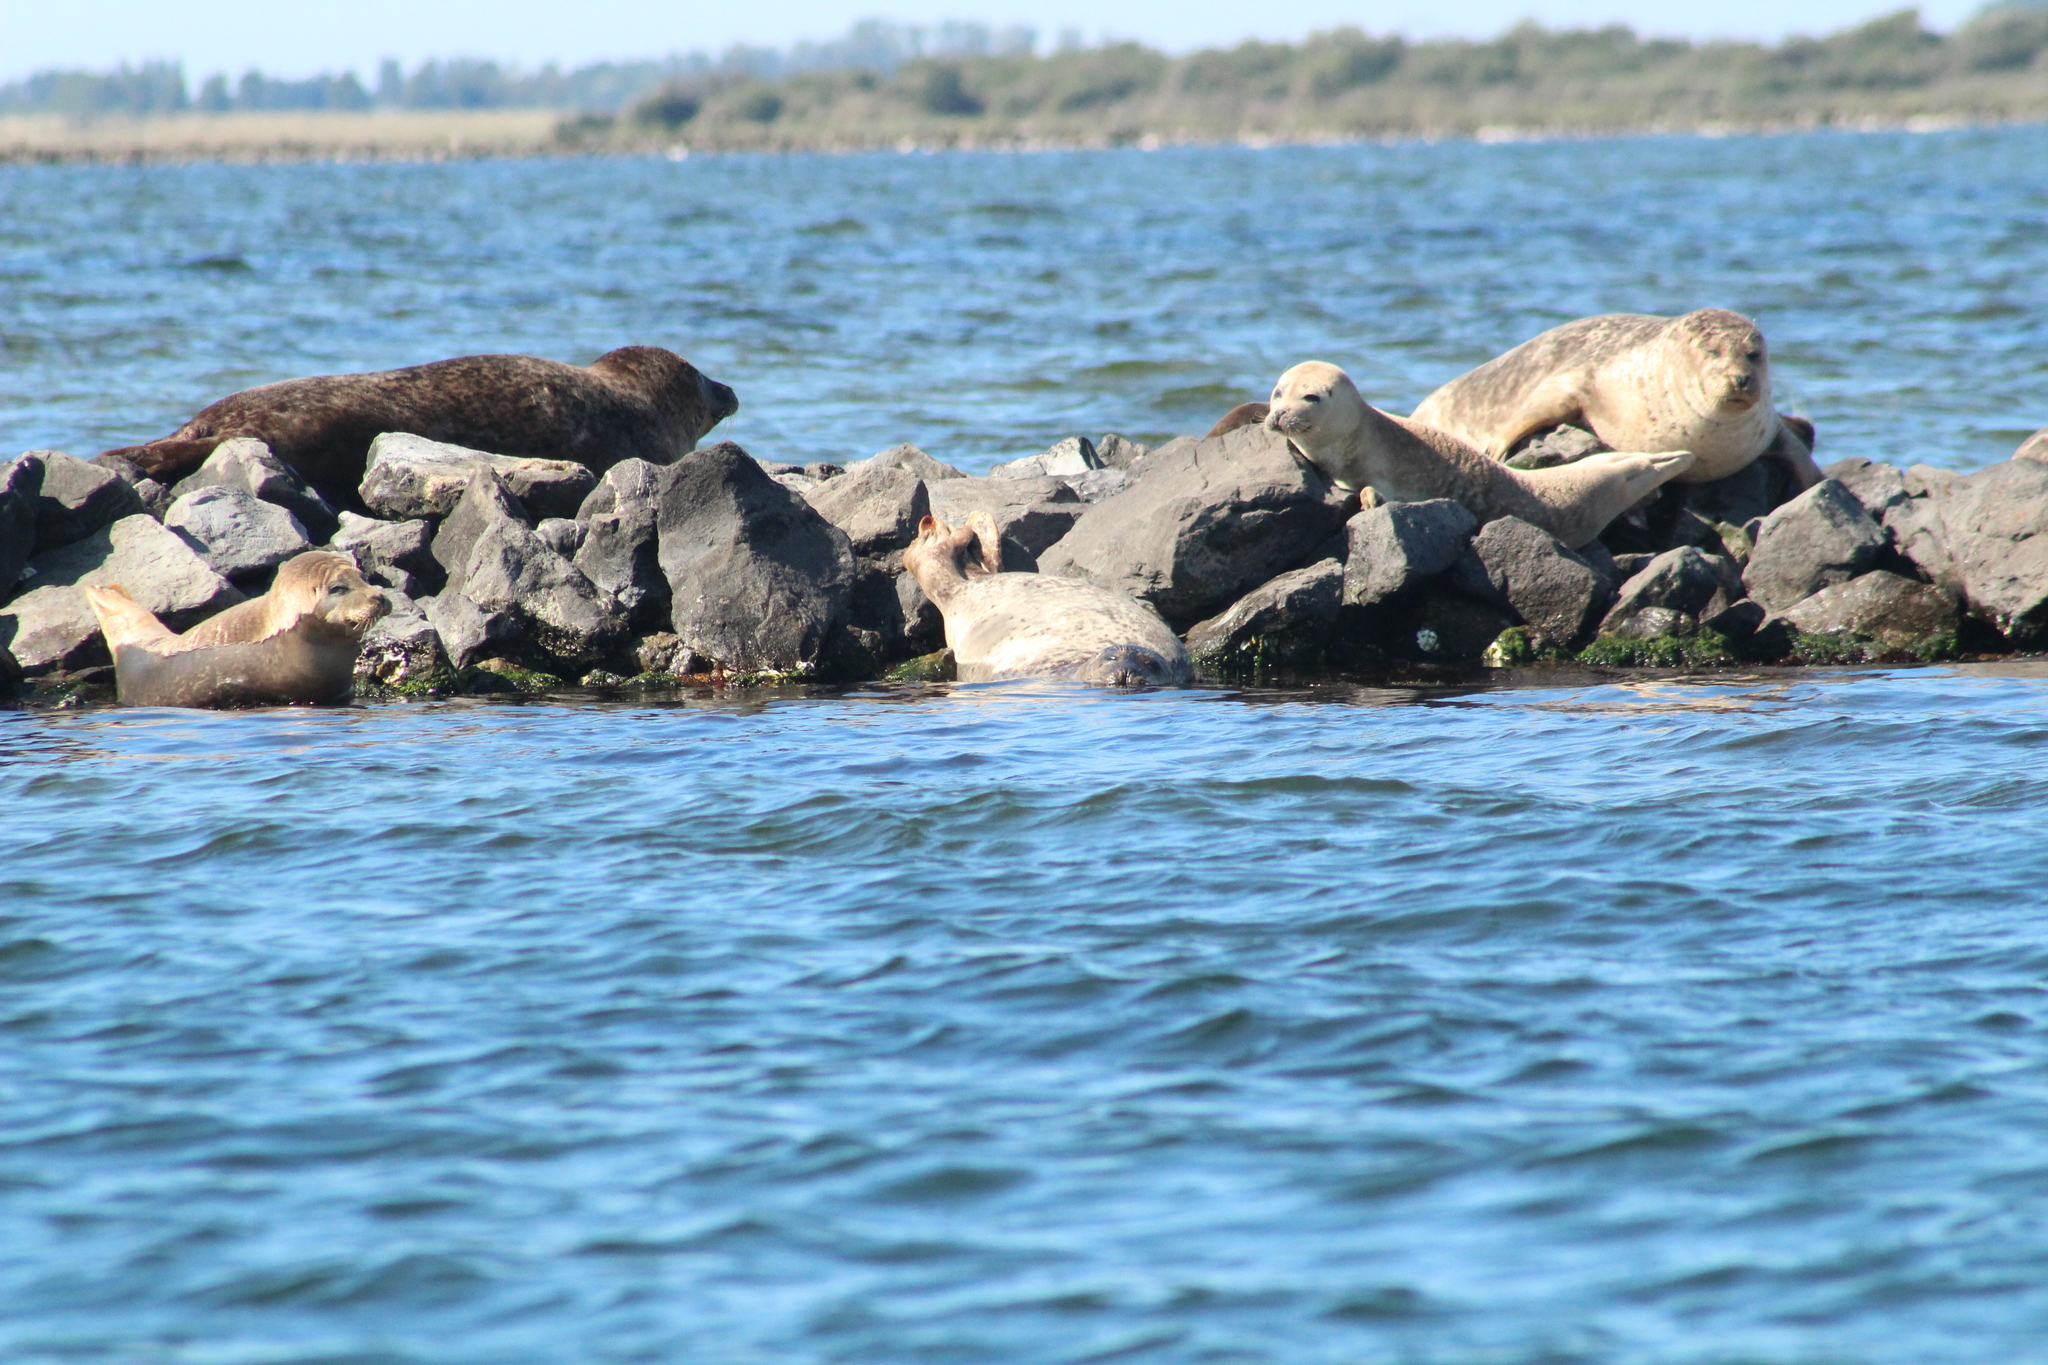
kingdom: Animalia
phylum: Chordata
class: Mammalia
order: Carnivora
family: Phocidae
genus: Phoca
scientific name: Phoca vitulina
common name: Harbor seal
